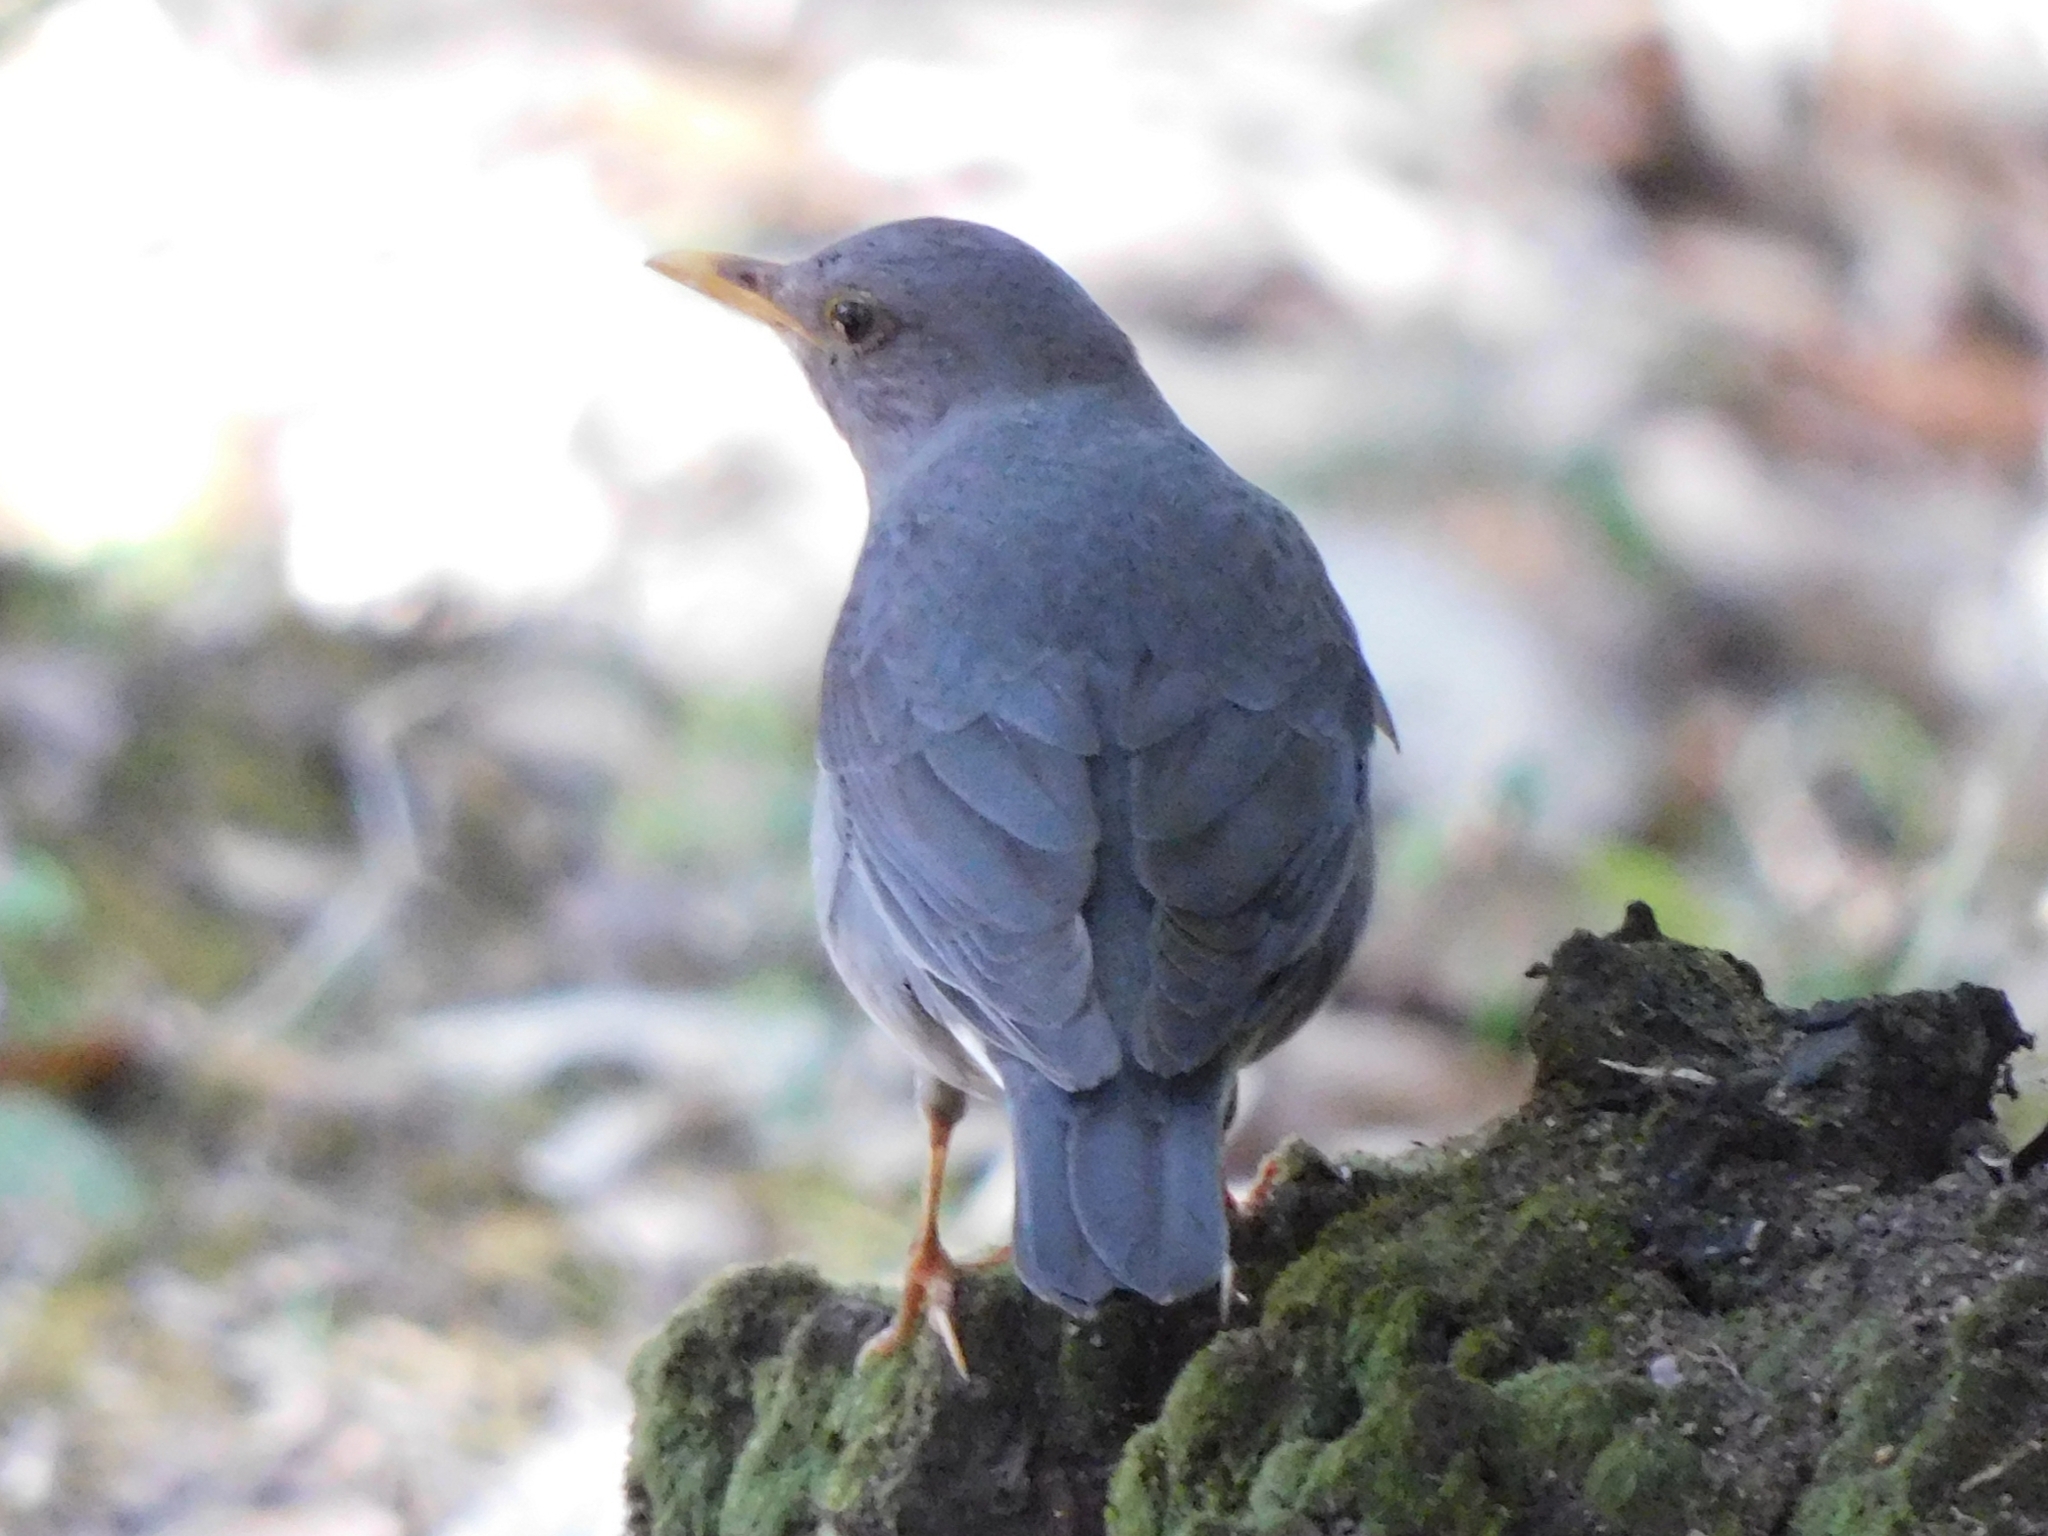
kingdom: Animalia
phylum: Chordata
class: Aves
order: Passeriformes
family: Turdidae
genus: Turdus
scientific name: Turdus unicolor
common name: Tickell's thrush
